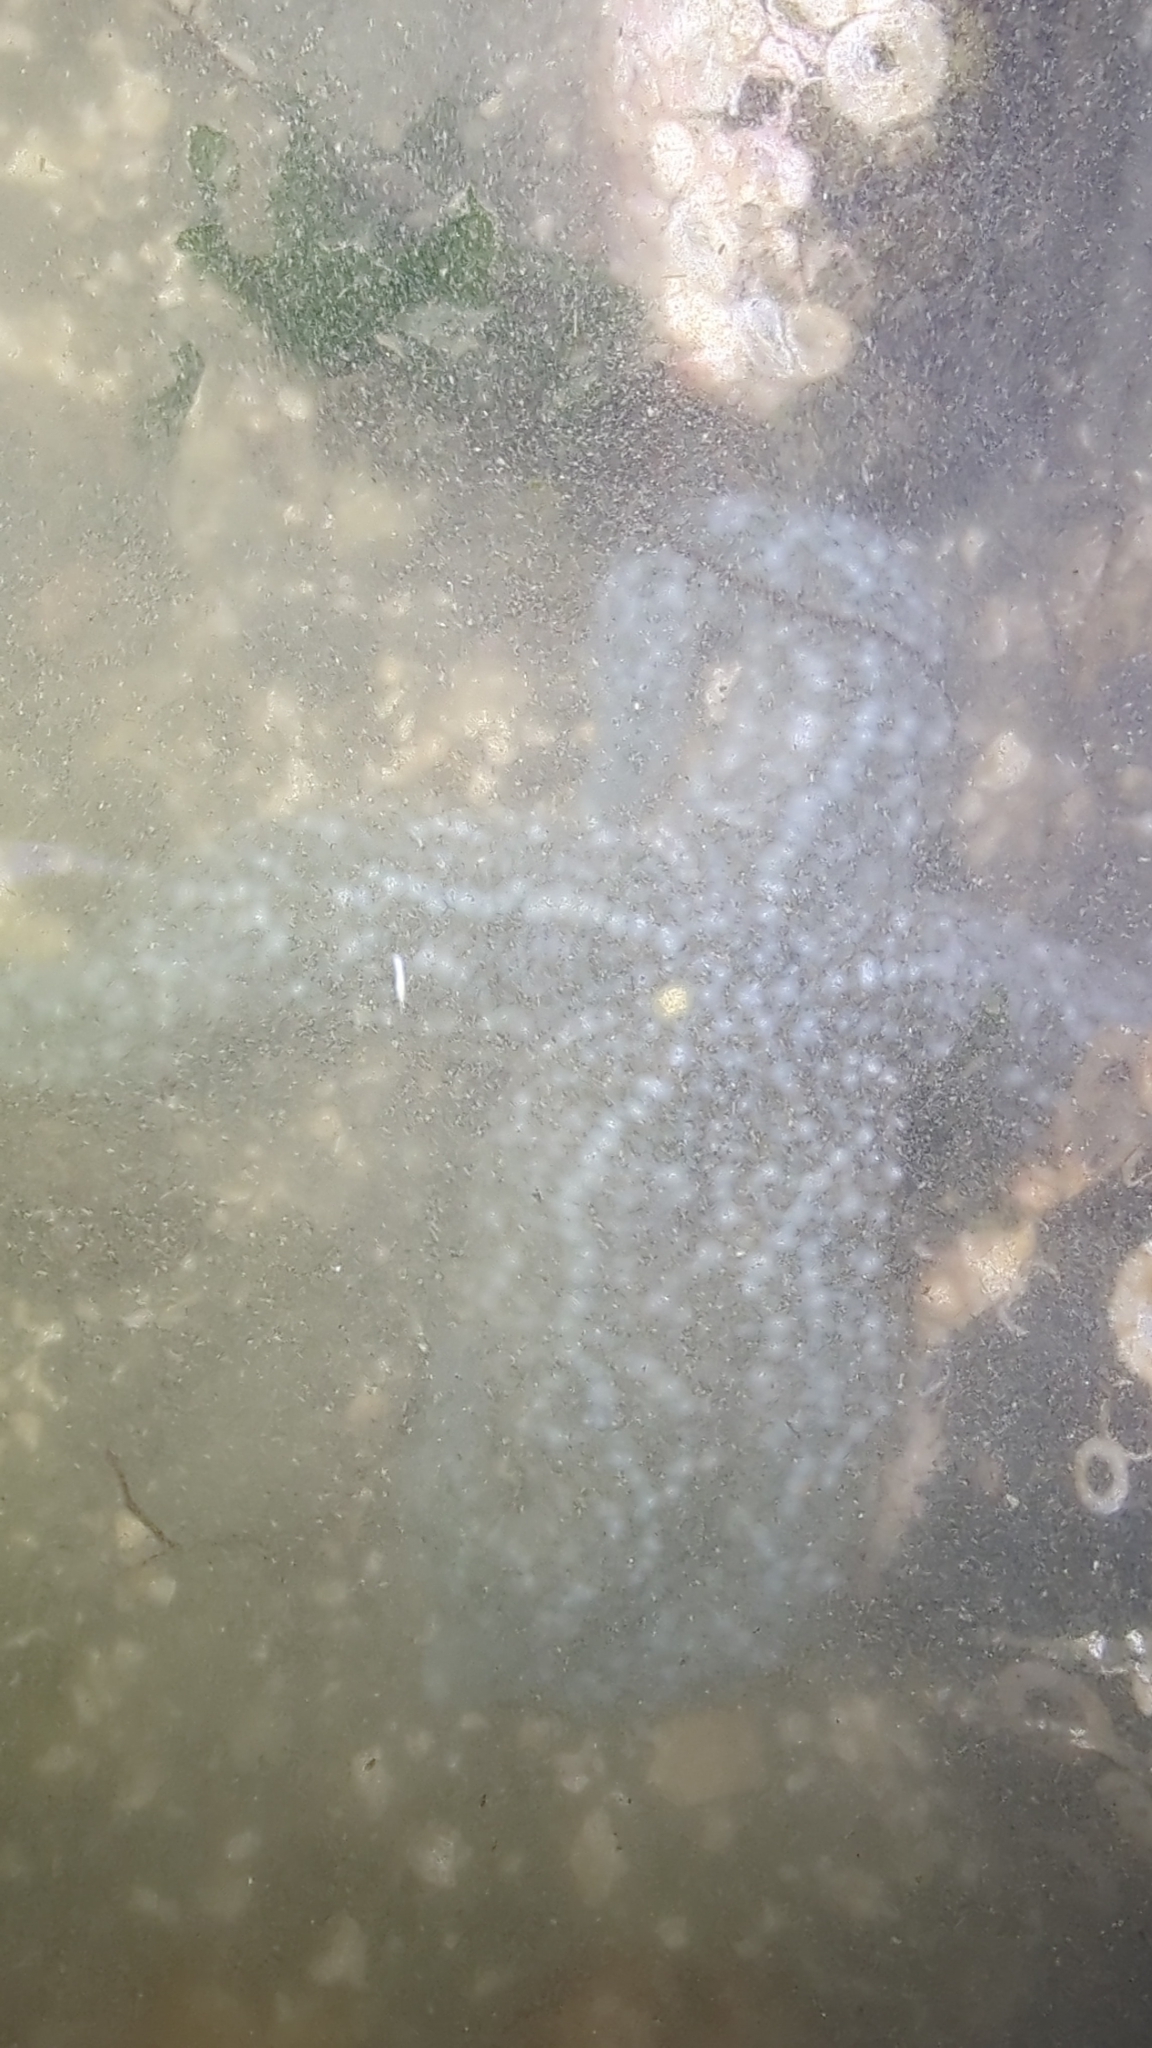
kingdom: Animalia
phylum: Echinodermata
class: Asteroidea
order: Forcipulatida
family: Asteriidae
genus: Evasterias
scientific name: Evasterias troschelii
